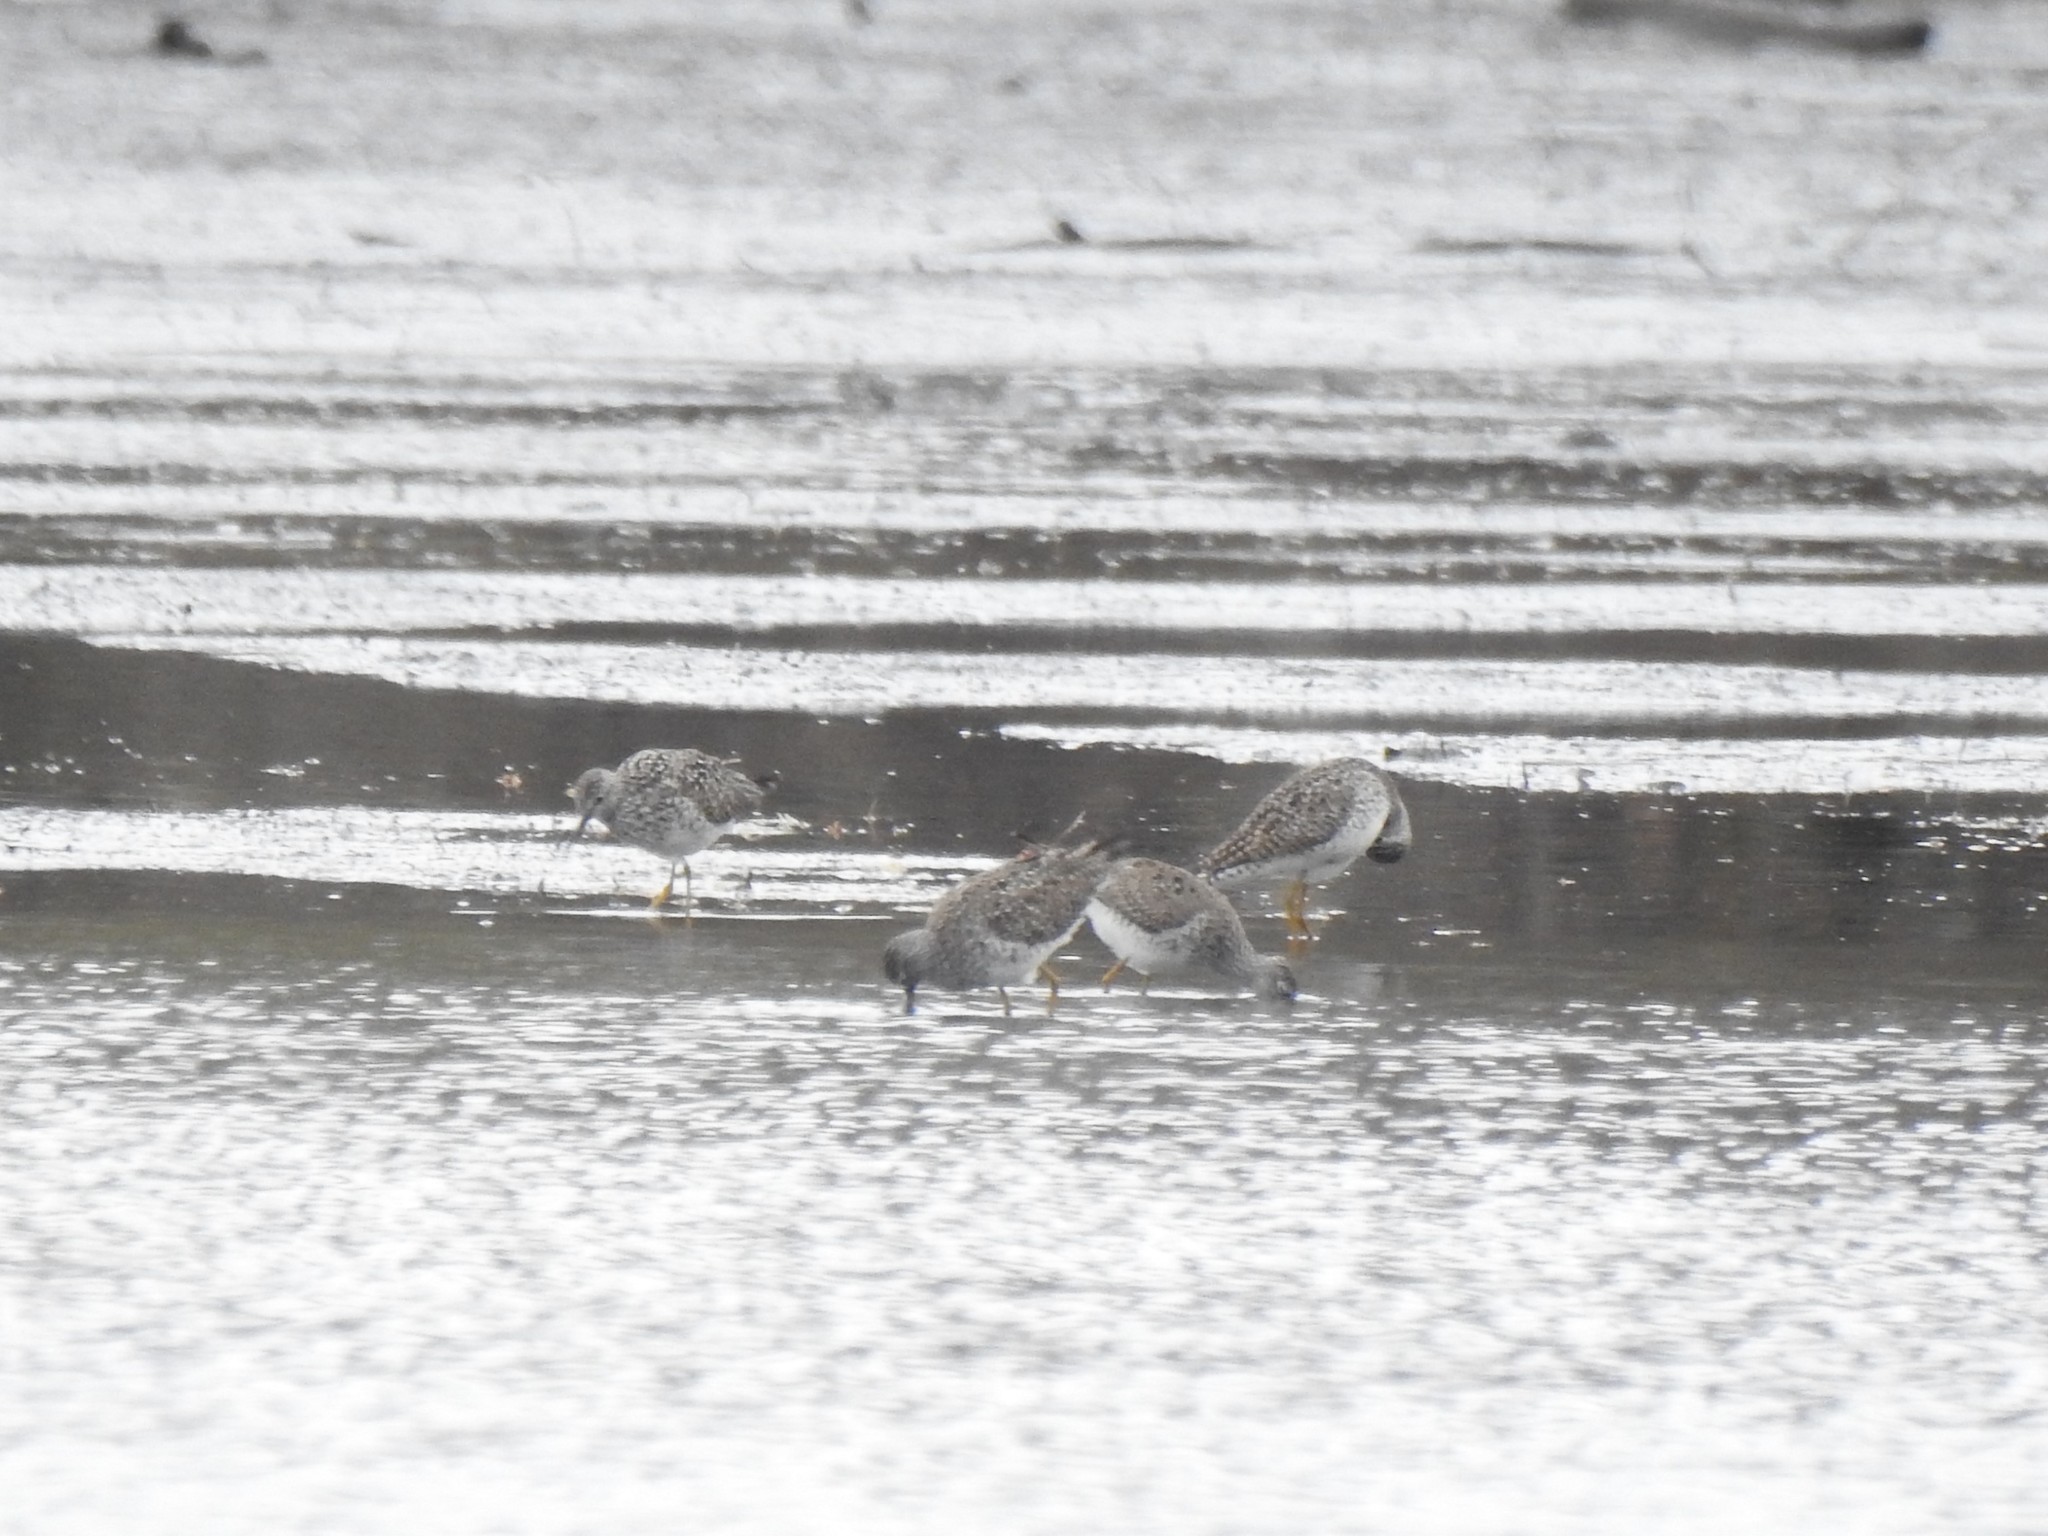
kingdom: Animalia
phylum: Chordata
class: Aves
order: Charadriiformes
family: Scolopacidae
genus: Tringa
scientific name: Tringa flavipes
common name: Lesser yellowlegs
